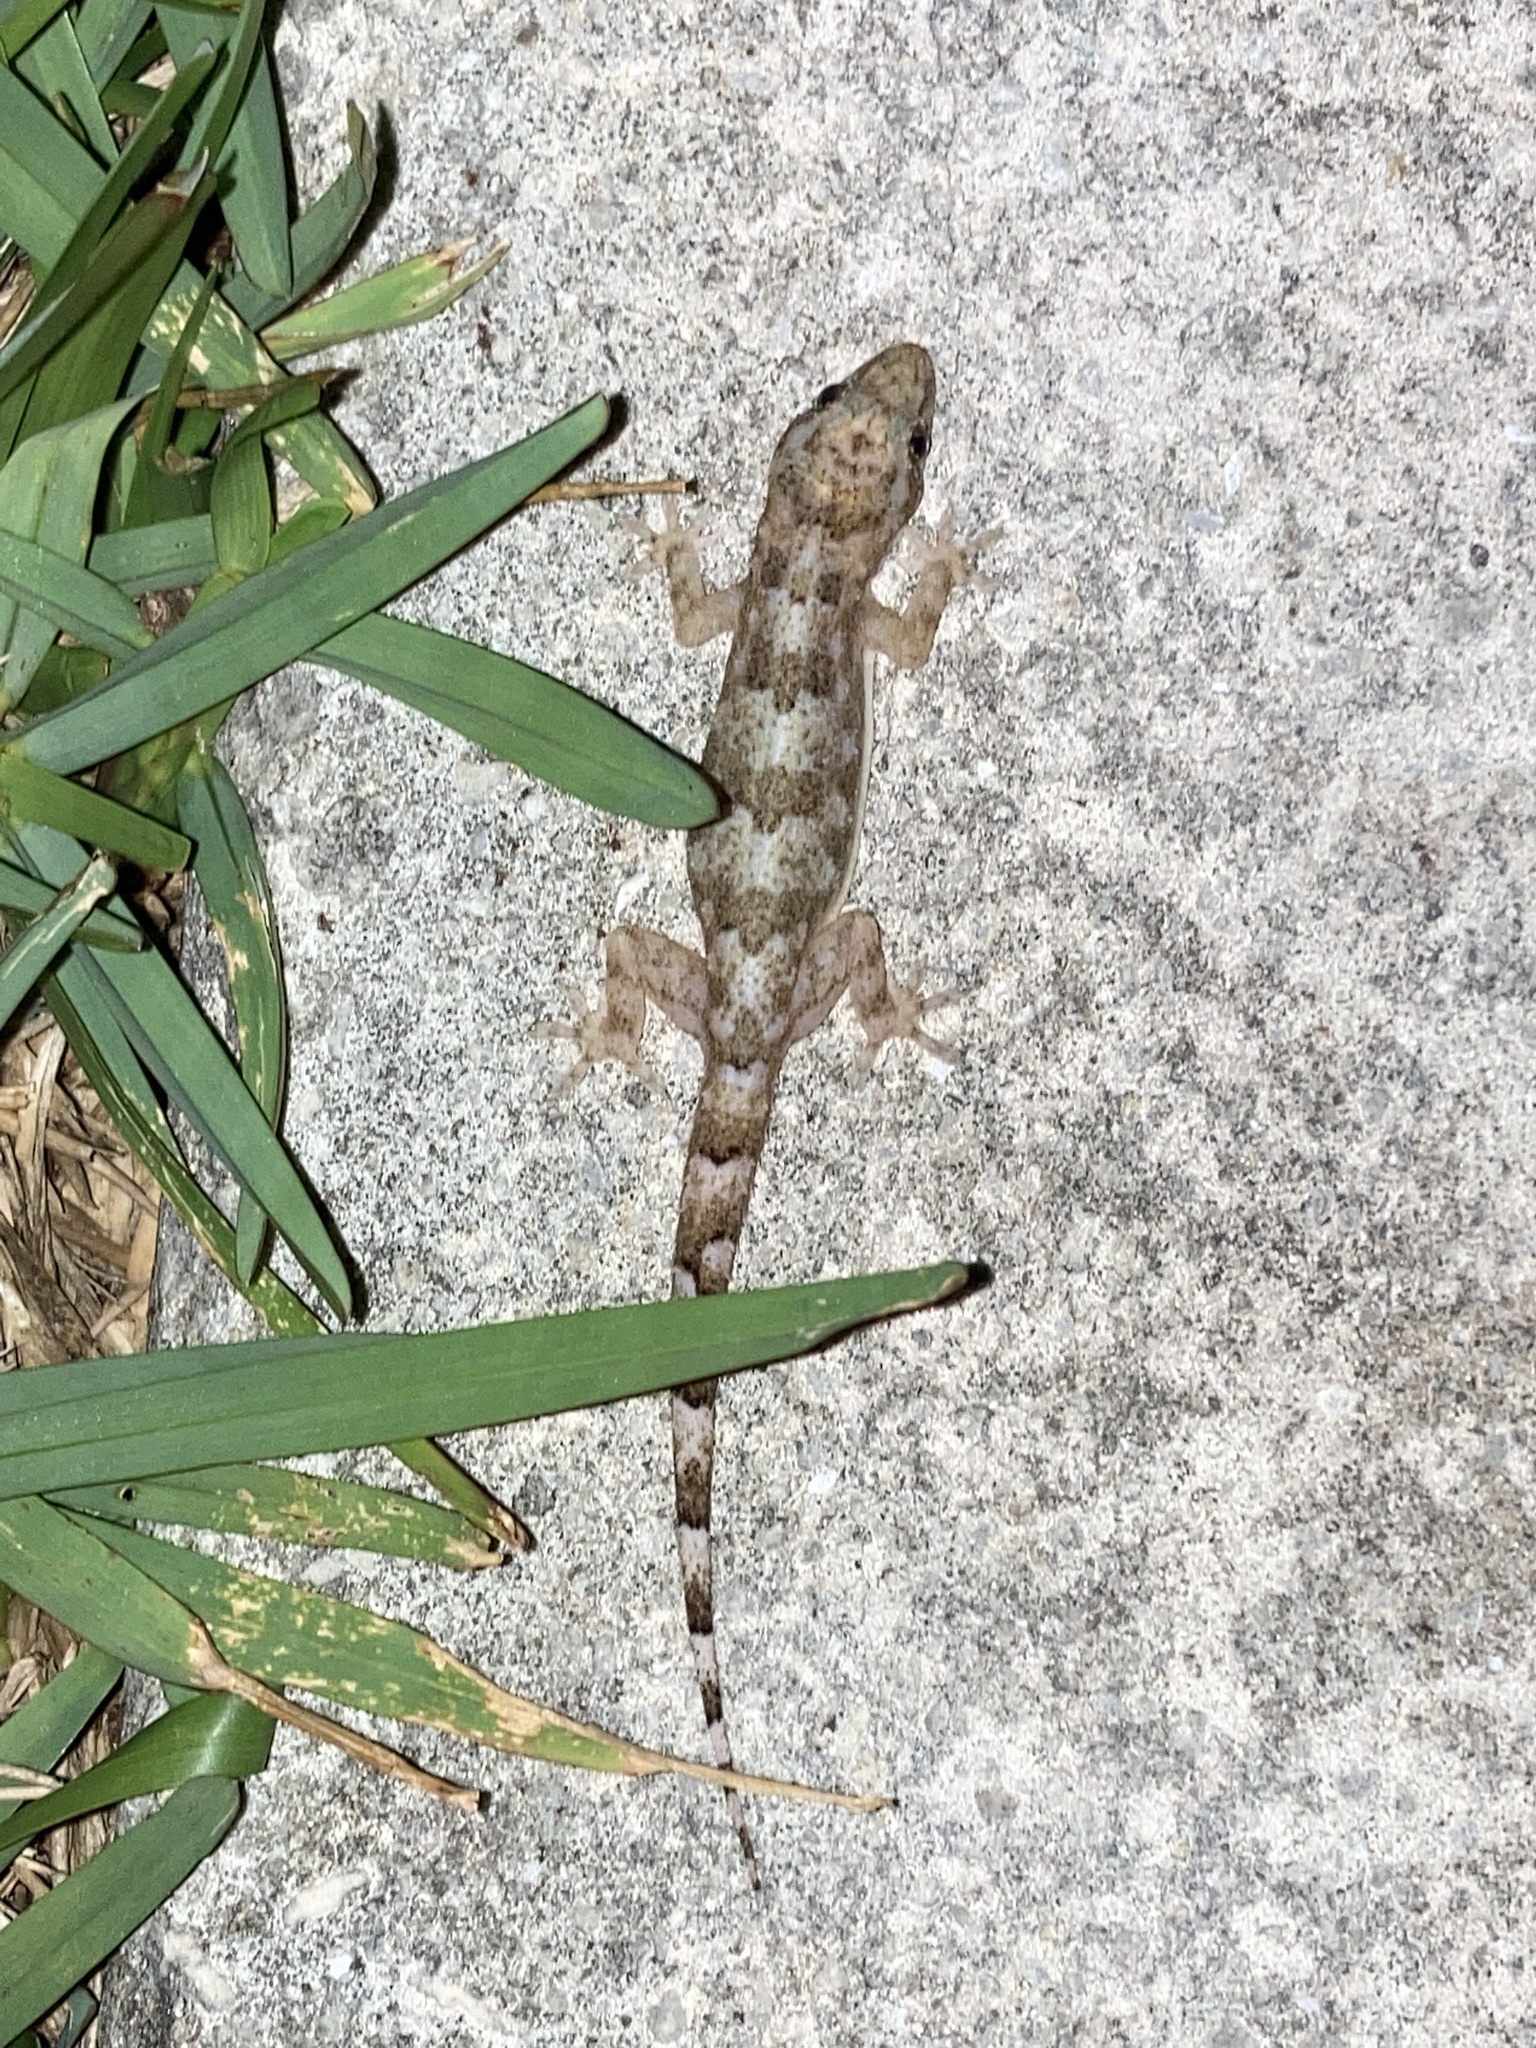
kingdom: Animalia
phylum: Chordata
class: Squamata
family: Gekkonidae
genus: Hemidactylus
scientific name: Hemidactylus mabouia
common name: House gecko
